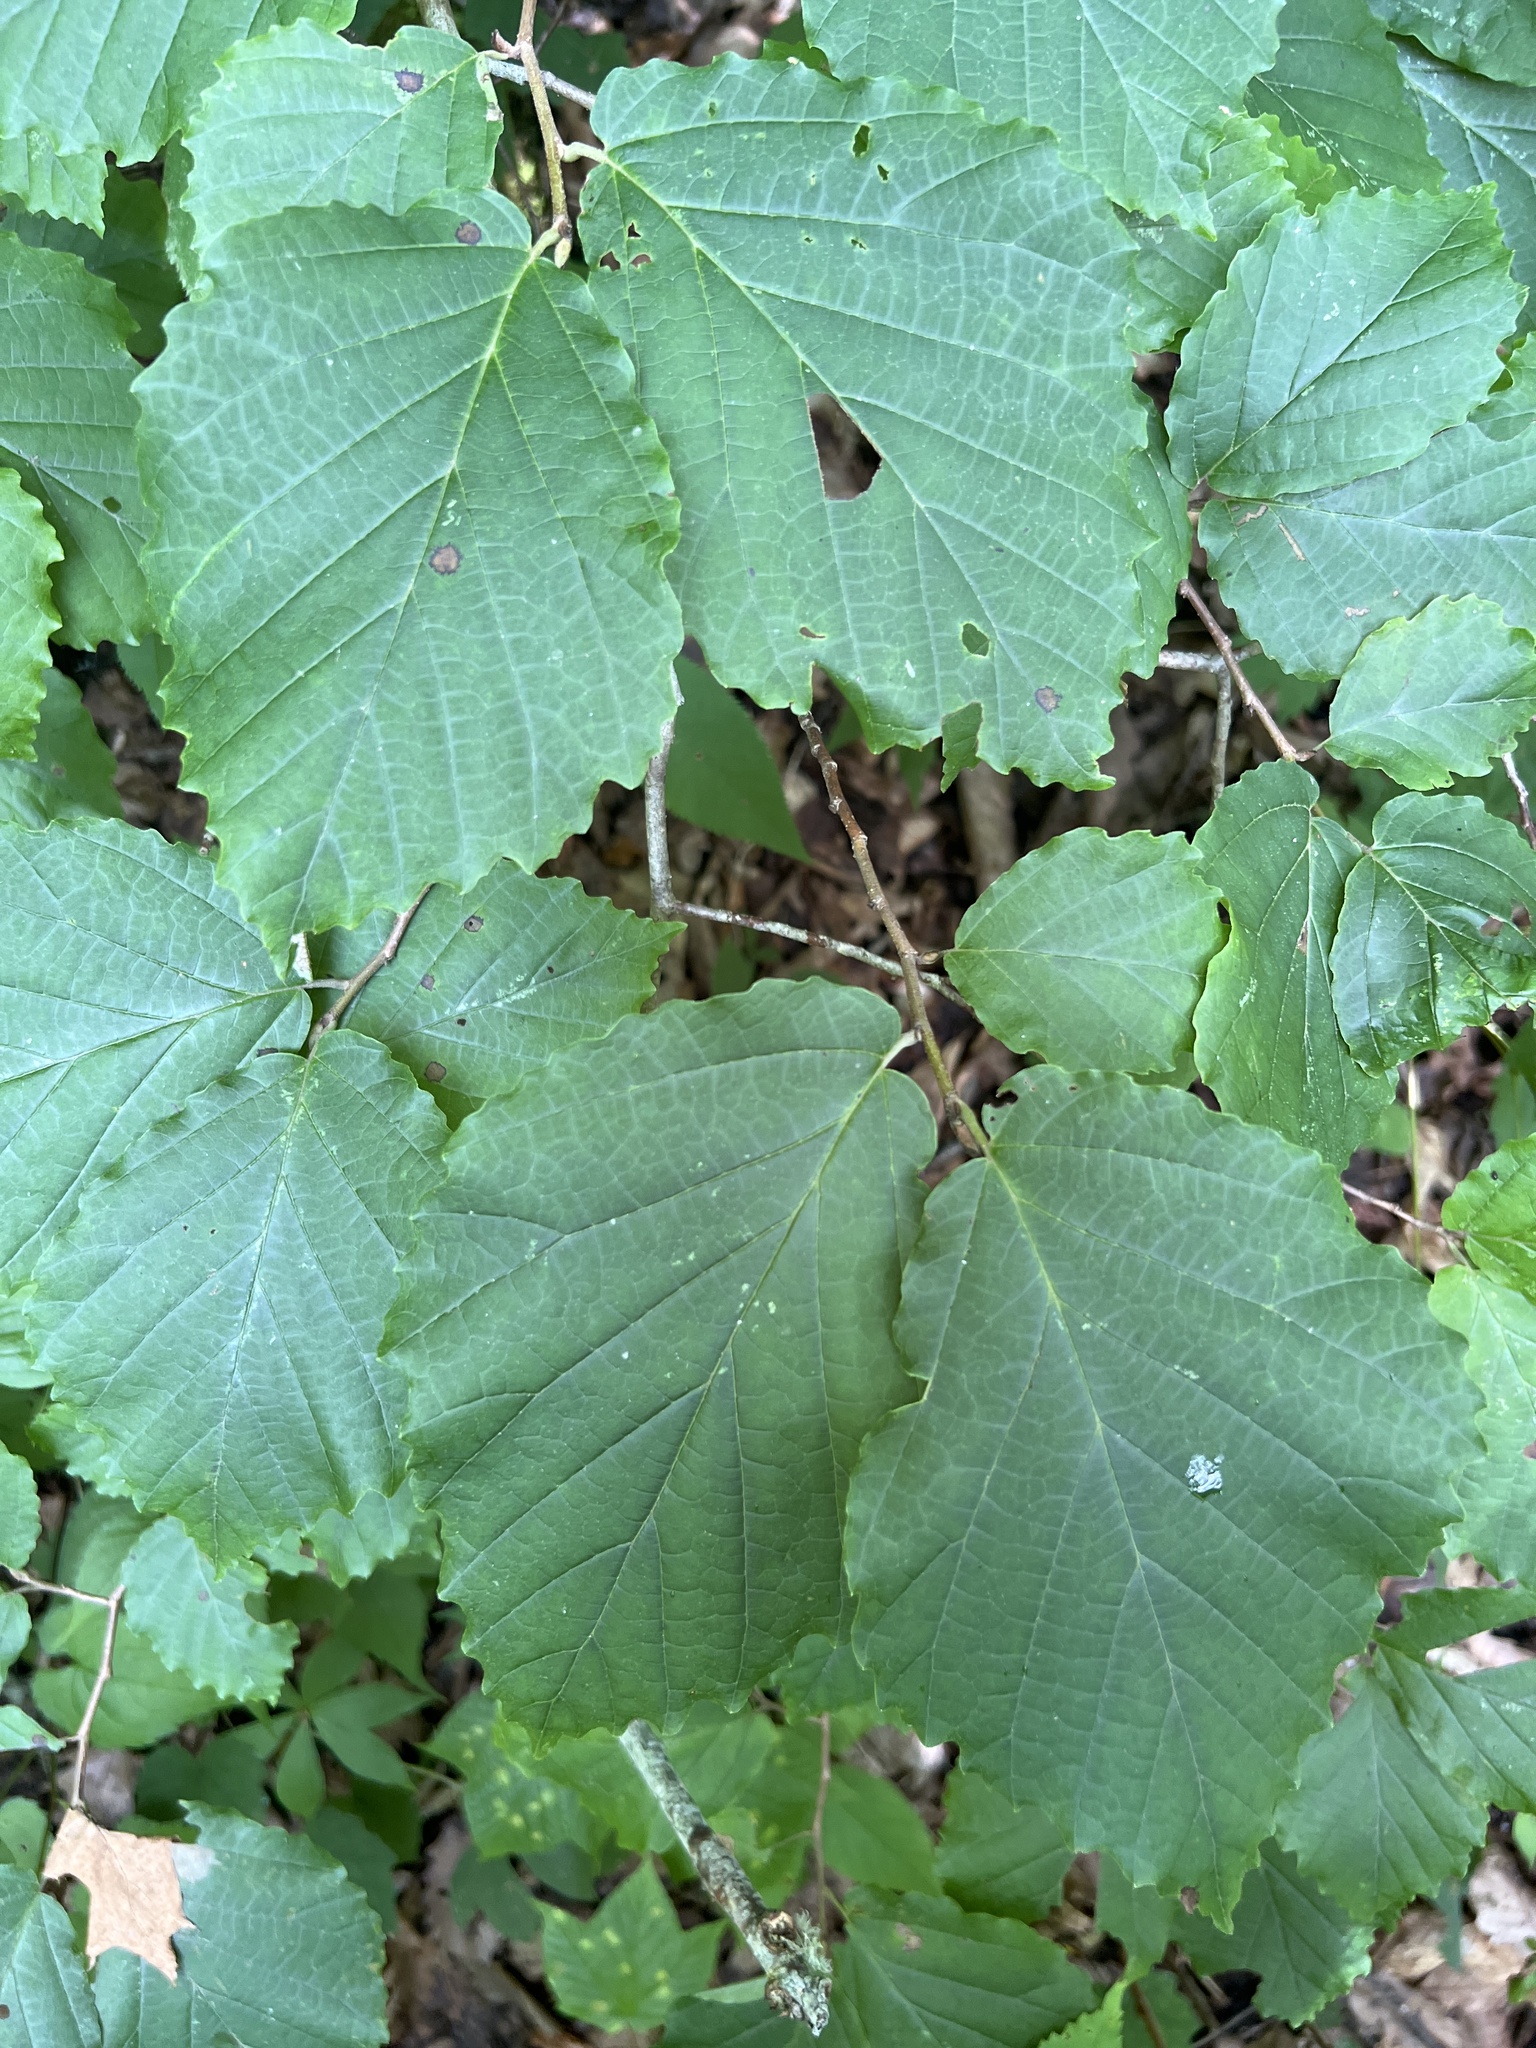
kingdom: Plantae
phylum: Tracheophyta
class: Magnoliopsida
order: Saxifragales
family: Hamamelidaceae
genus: Hamamelis
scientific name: Hamamelis virginiana
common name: Witch-hazel
